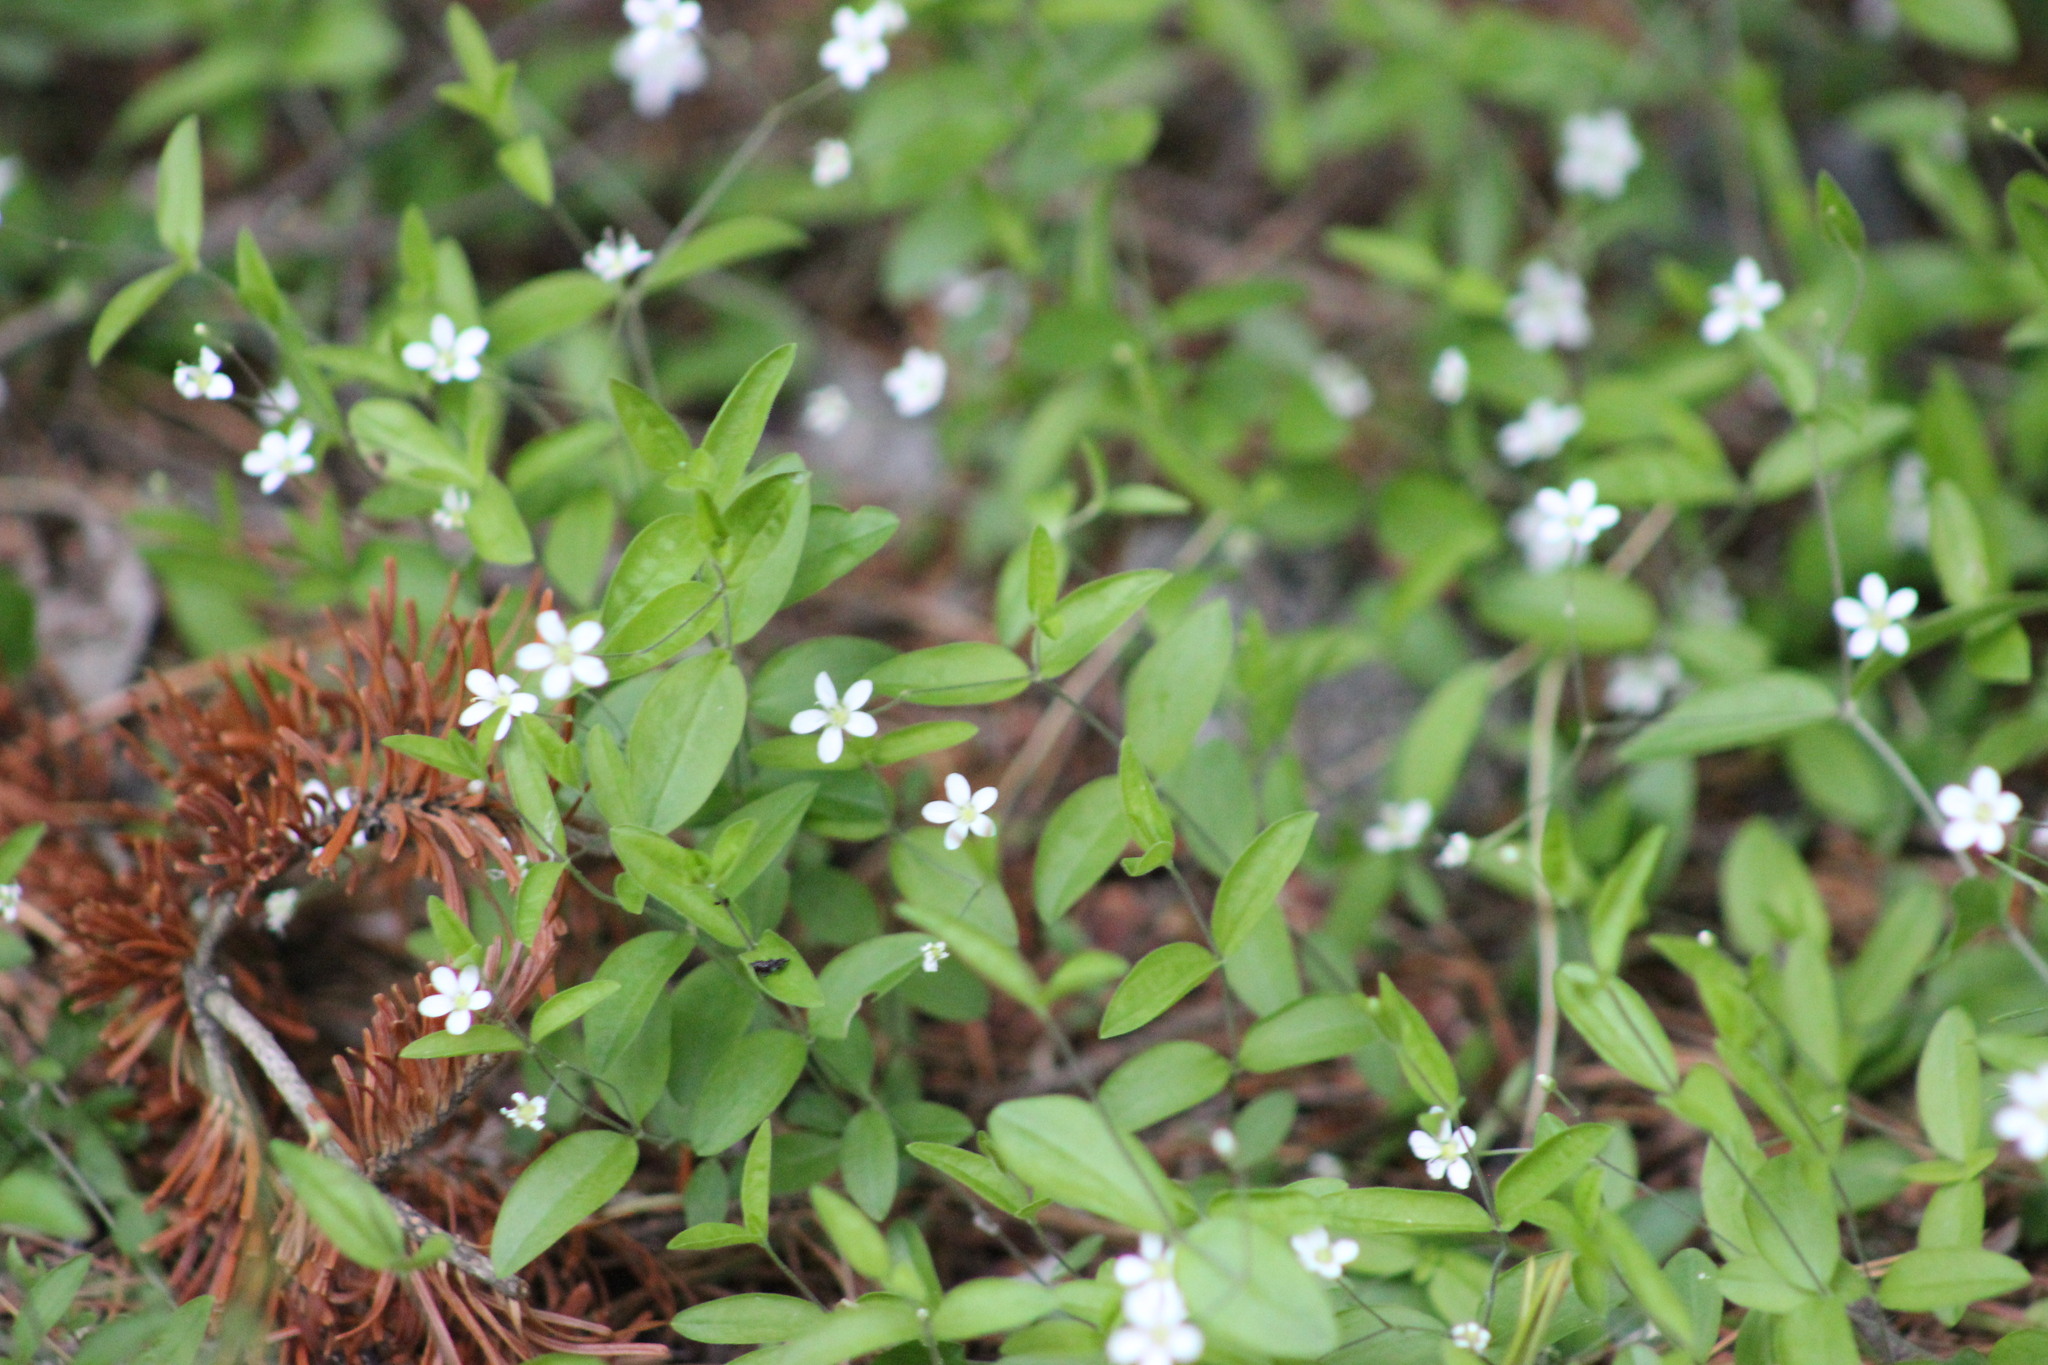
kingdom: Plantae
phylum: Tracheophyta
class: Magnoliopsida
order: Caryophyllales
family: Caryophyllaceae
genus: Moehringia
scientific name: Moehringia lateriflora
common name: Blunt-leaved sandwort
